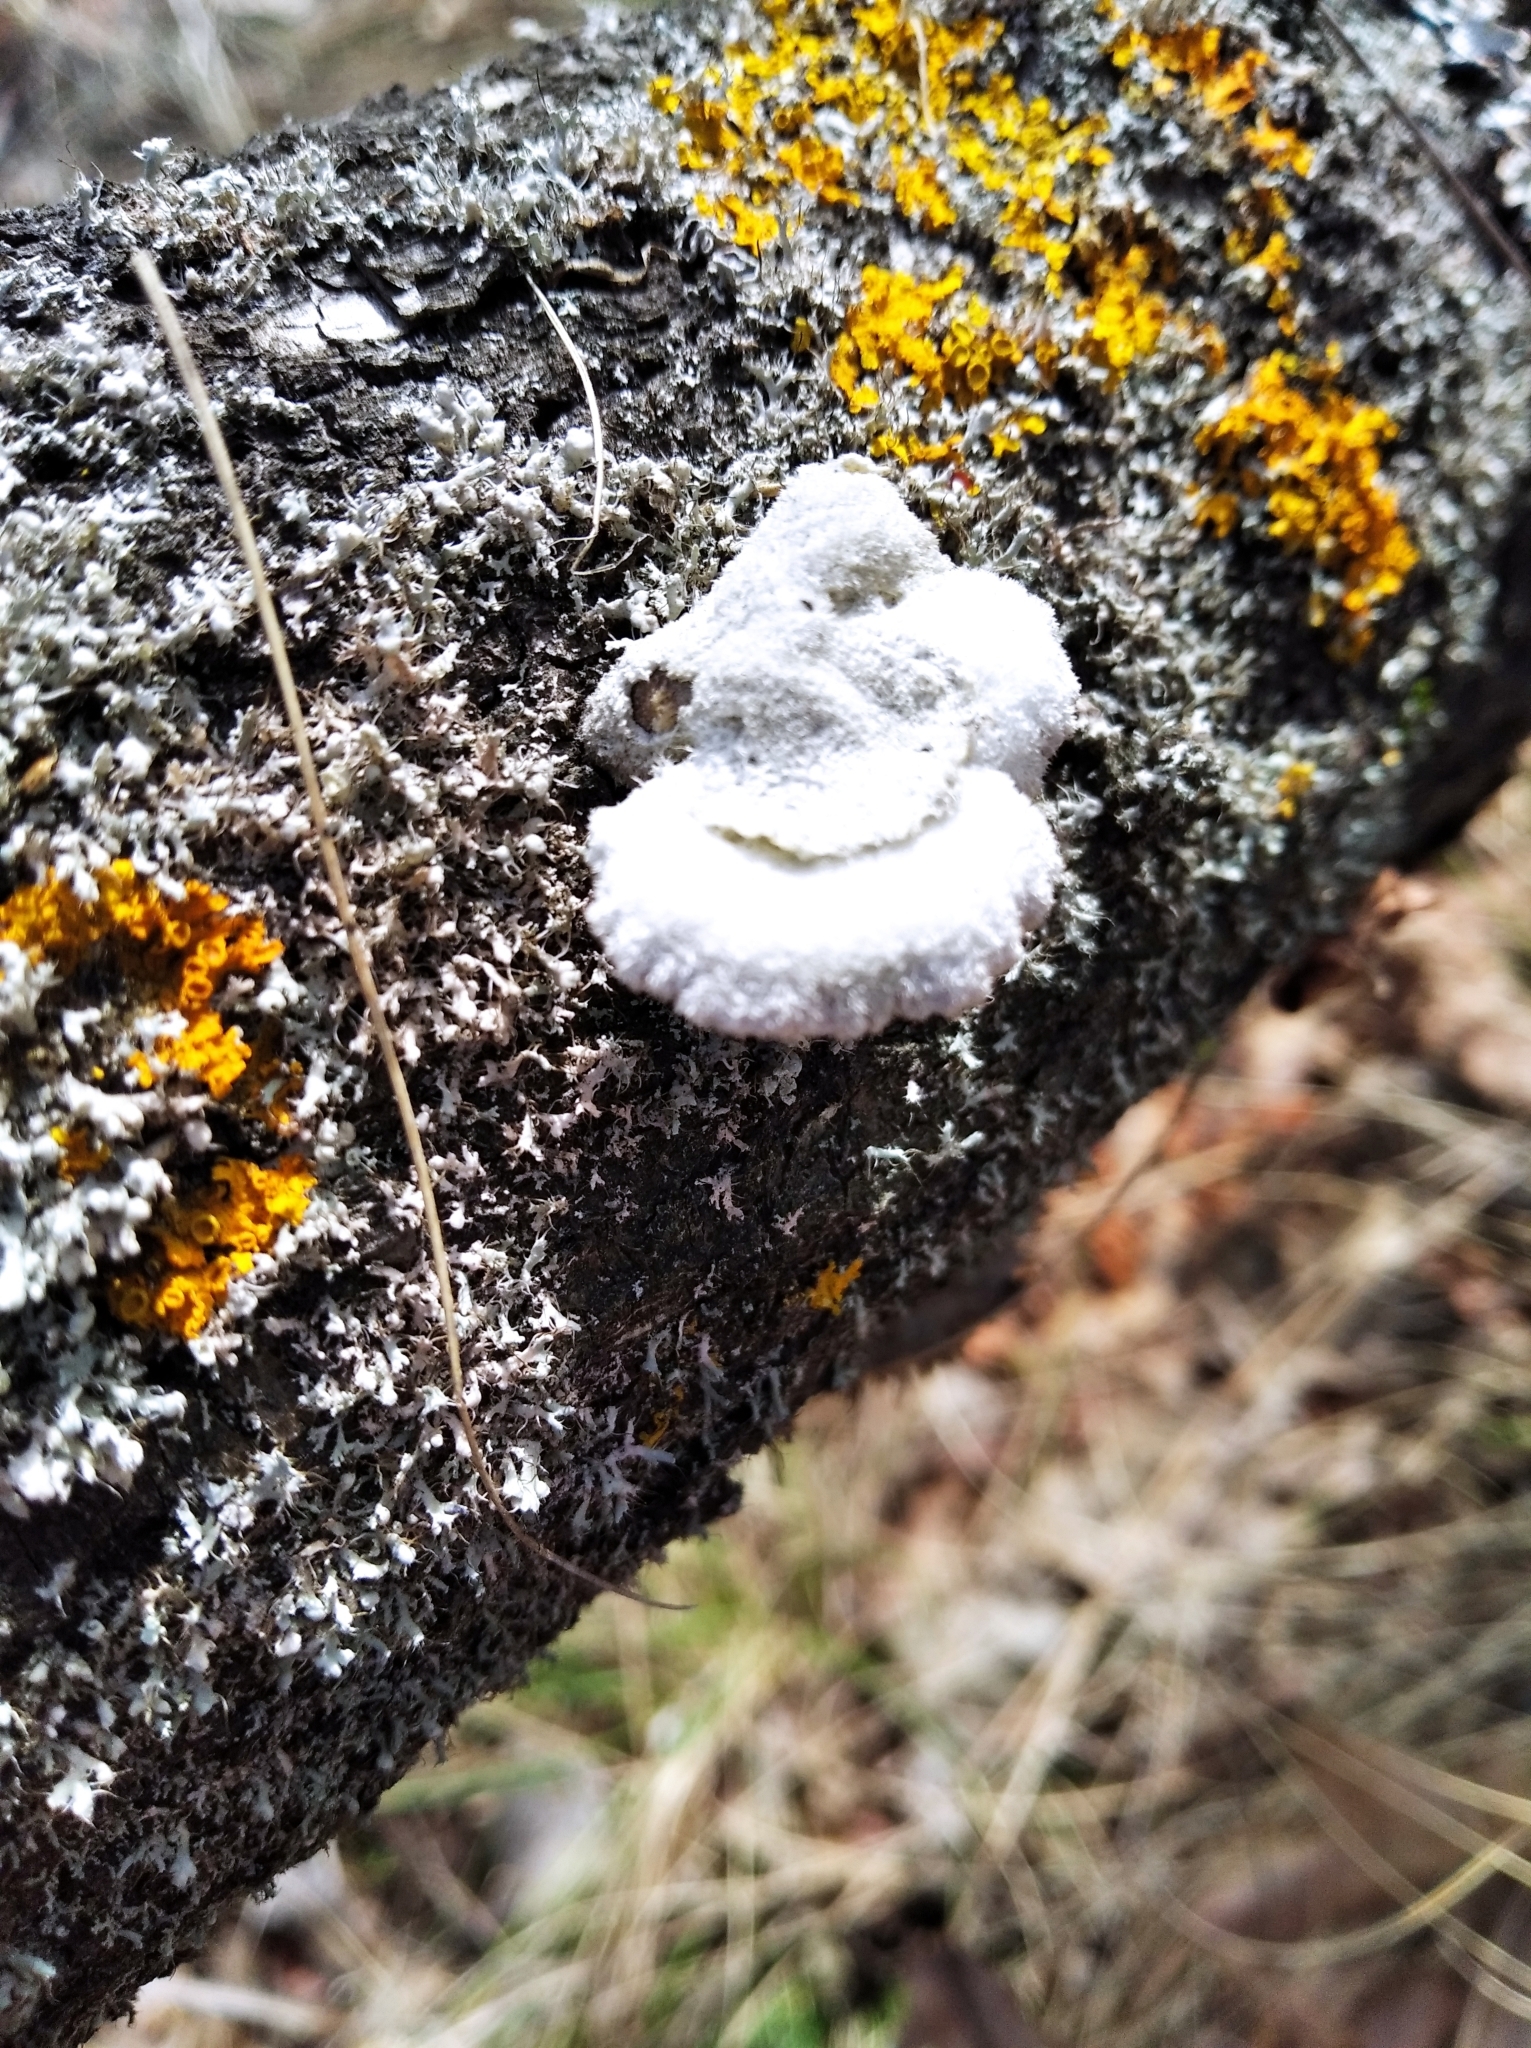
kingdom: Fungi
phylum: Basidiomycota
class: Agaricomycetes
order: Agaricales
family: Schizophyllaceae
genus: Schizophyllum
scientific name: Schizophyllum commune
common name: Common porecrust
